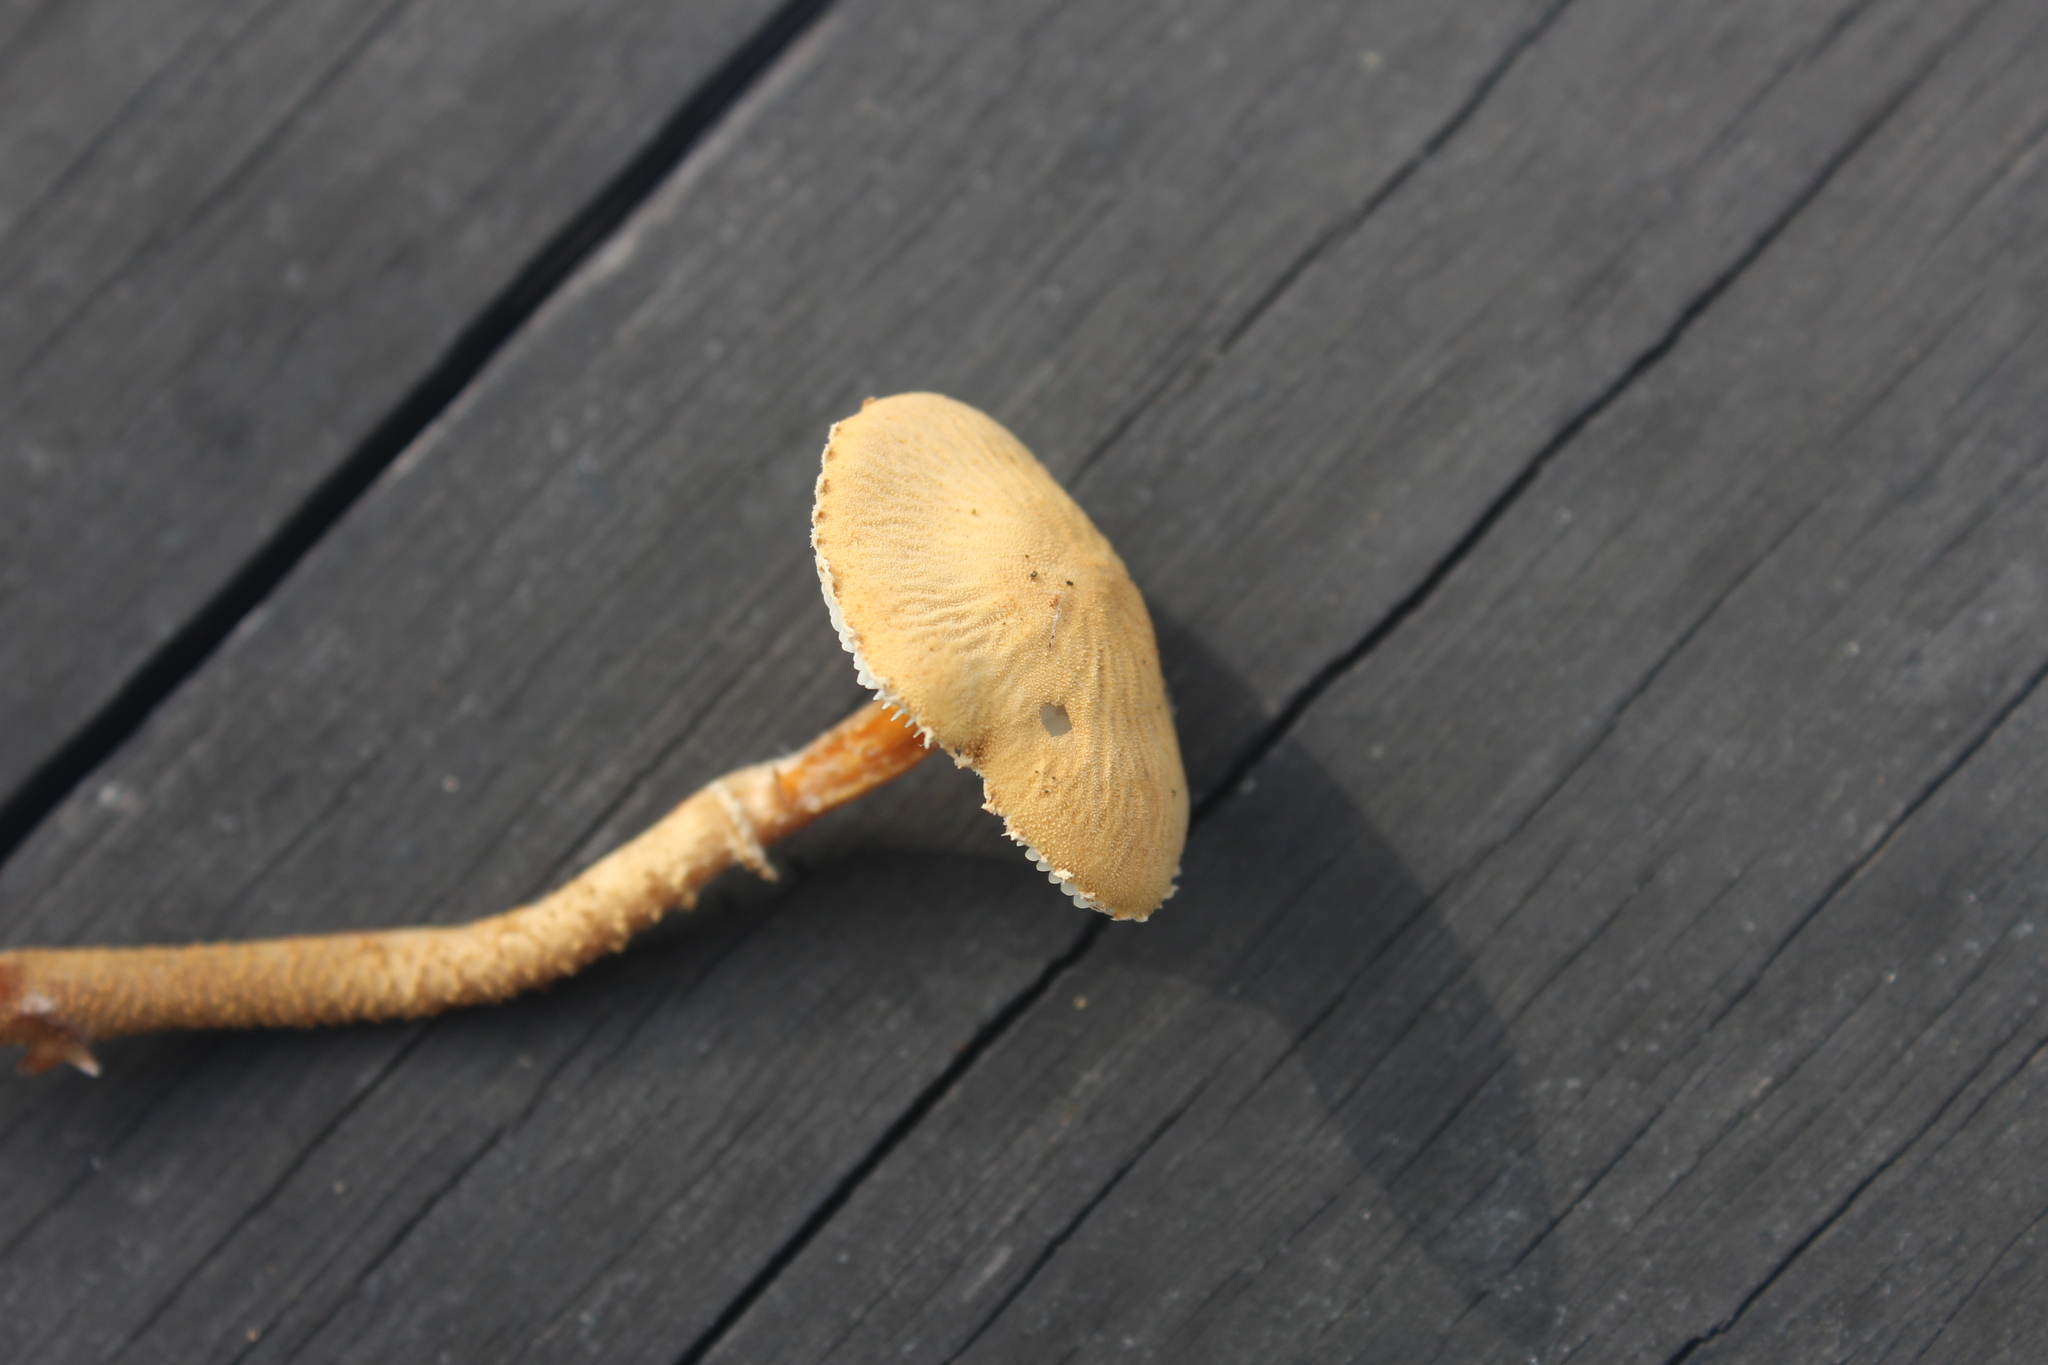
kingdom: Fungi
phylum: Basidiomycota
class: Agaricomycetes
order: Agaricales
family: Tricholomataceae
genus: Cystoderma
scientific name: Cystoderma amianthinum
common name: Earthy powdercap
